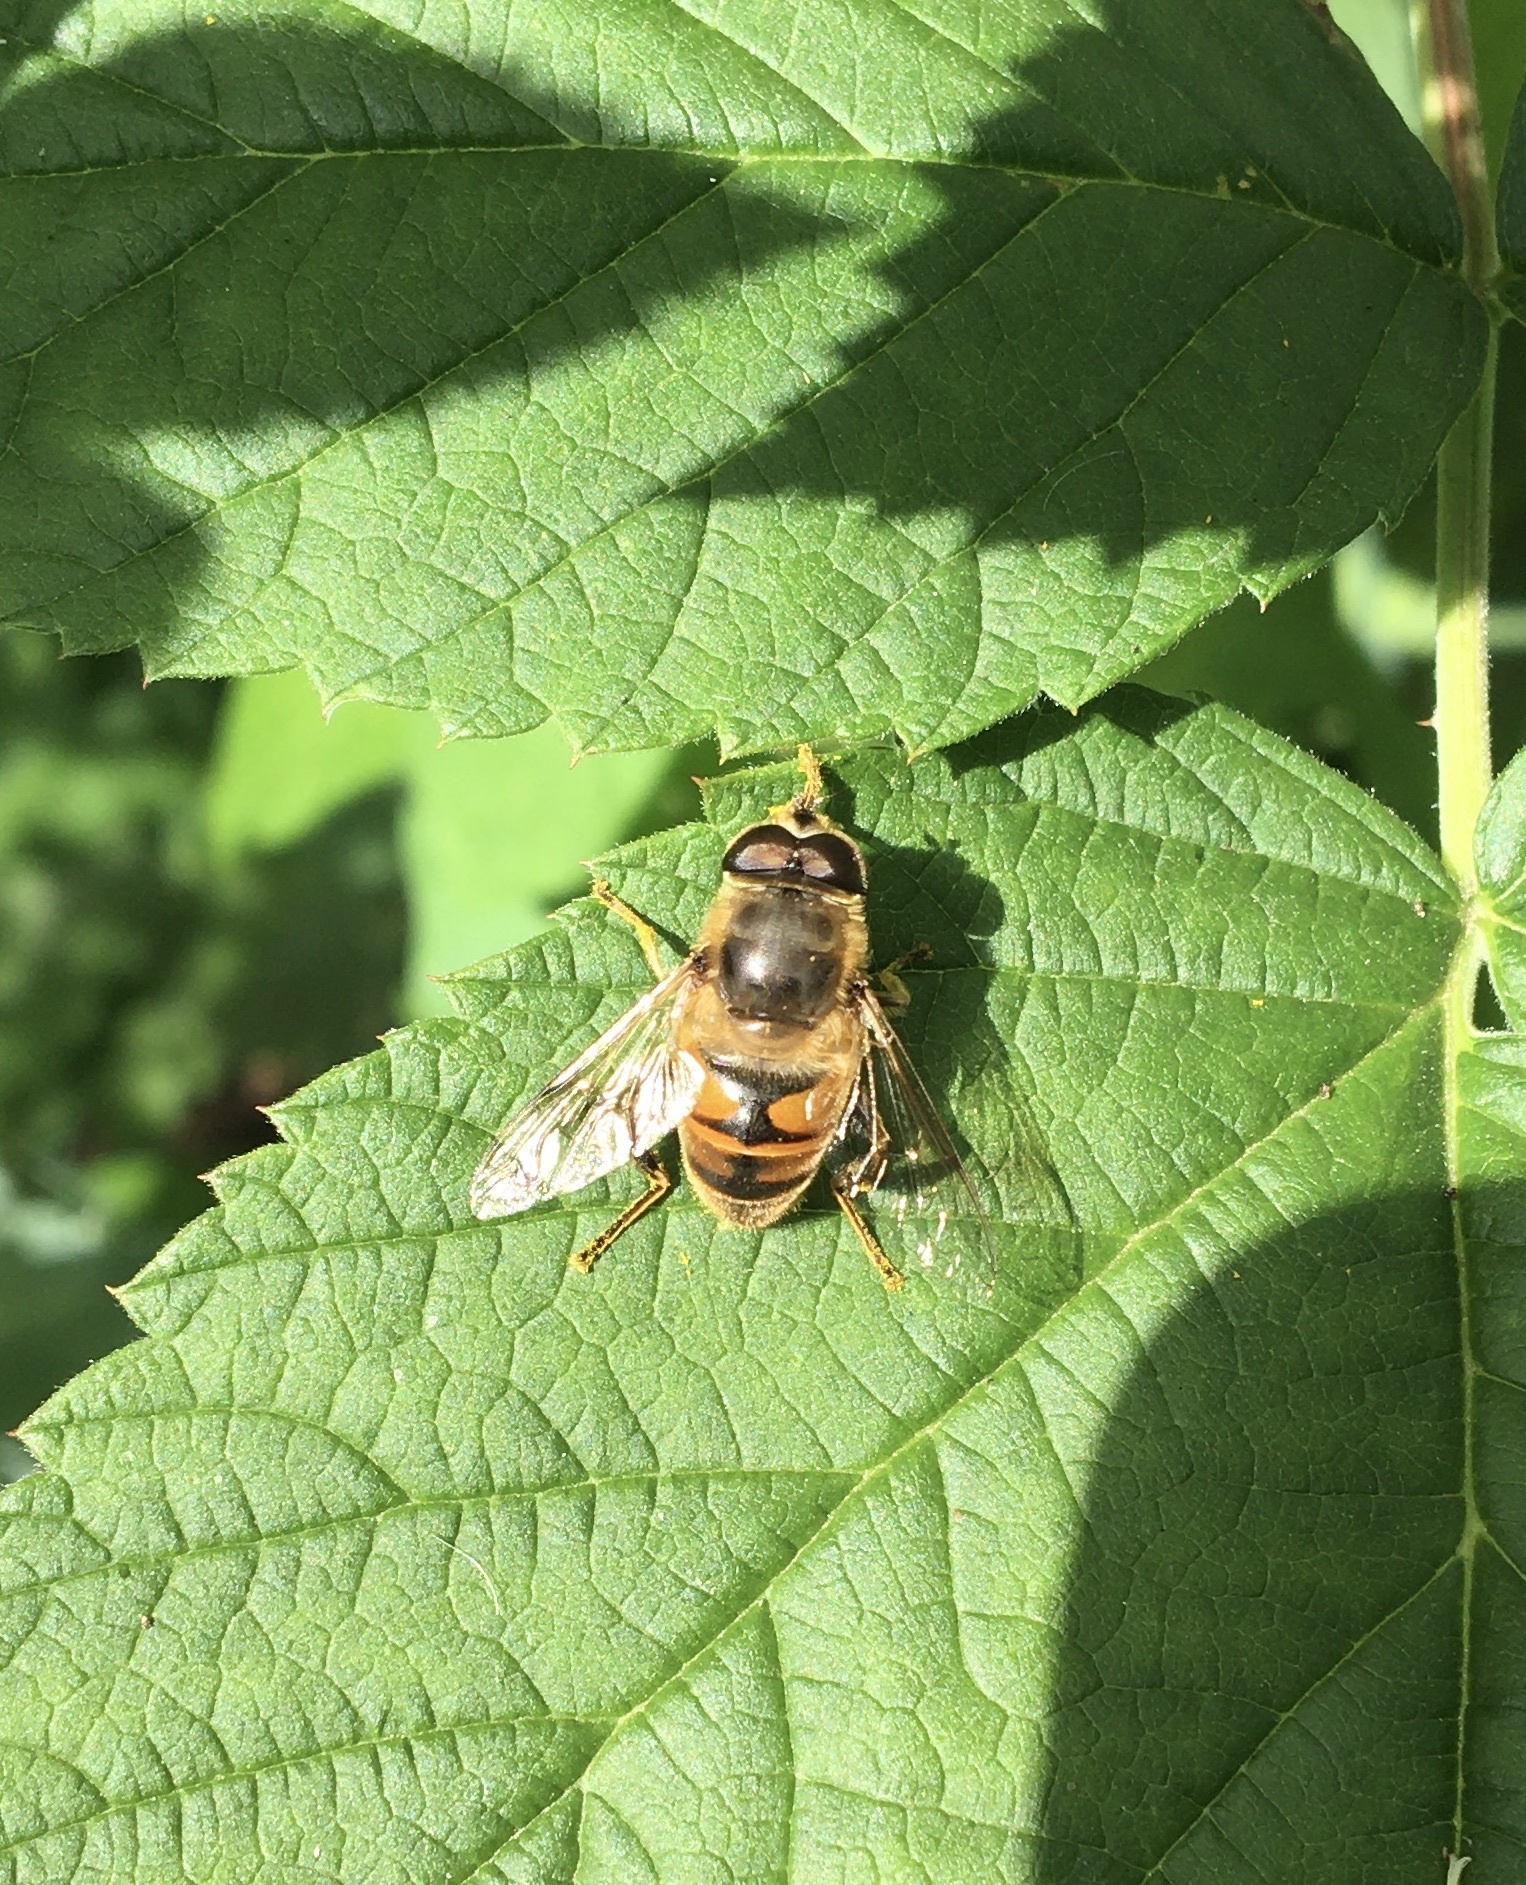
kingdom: Animalia
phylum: Arthropoda
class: Insecta
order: Diptera
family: Syrphidae
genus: Eristalis
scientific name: Eristalis tenax
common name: Drone fly
